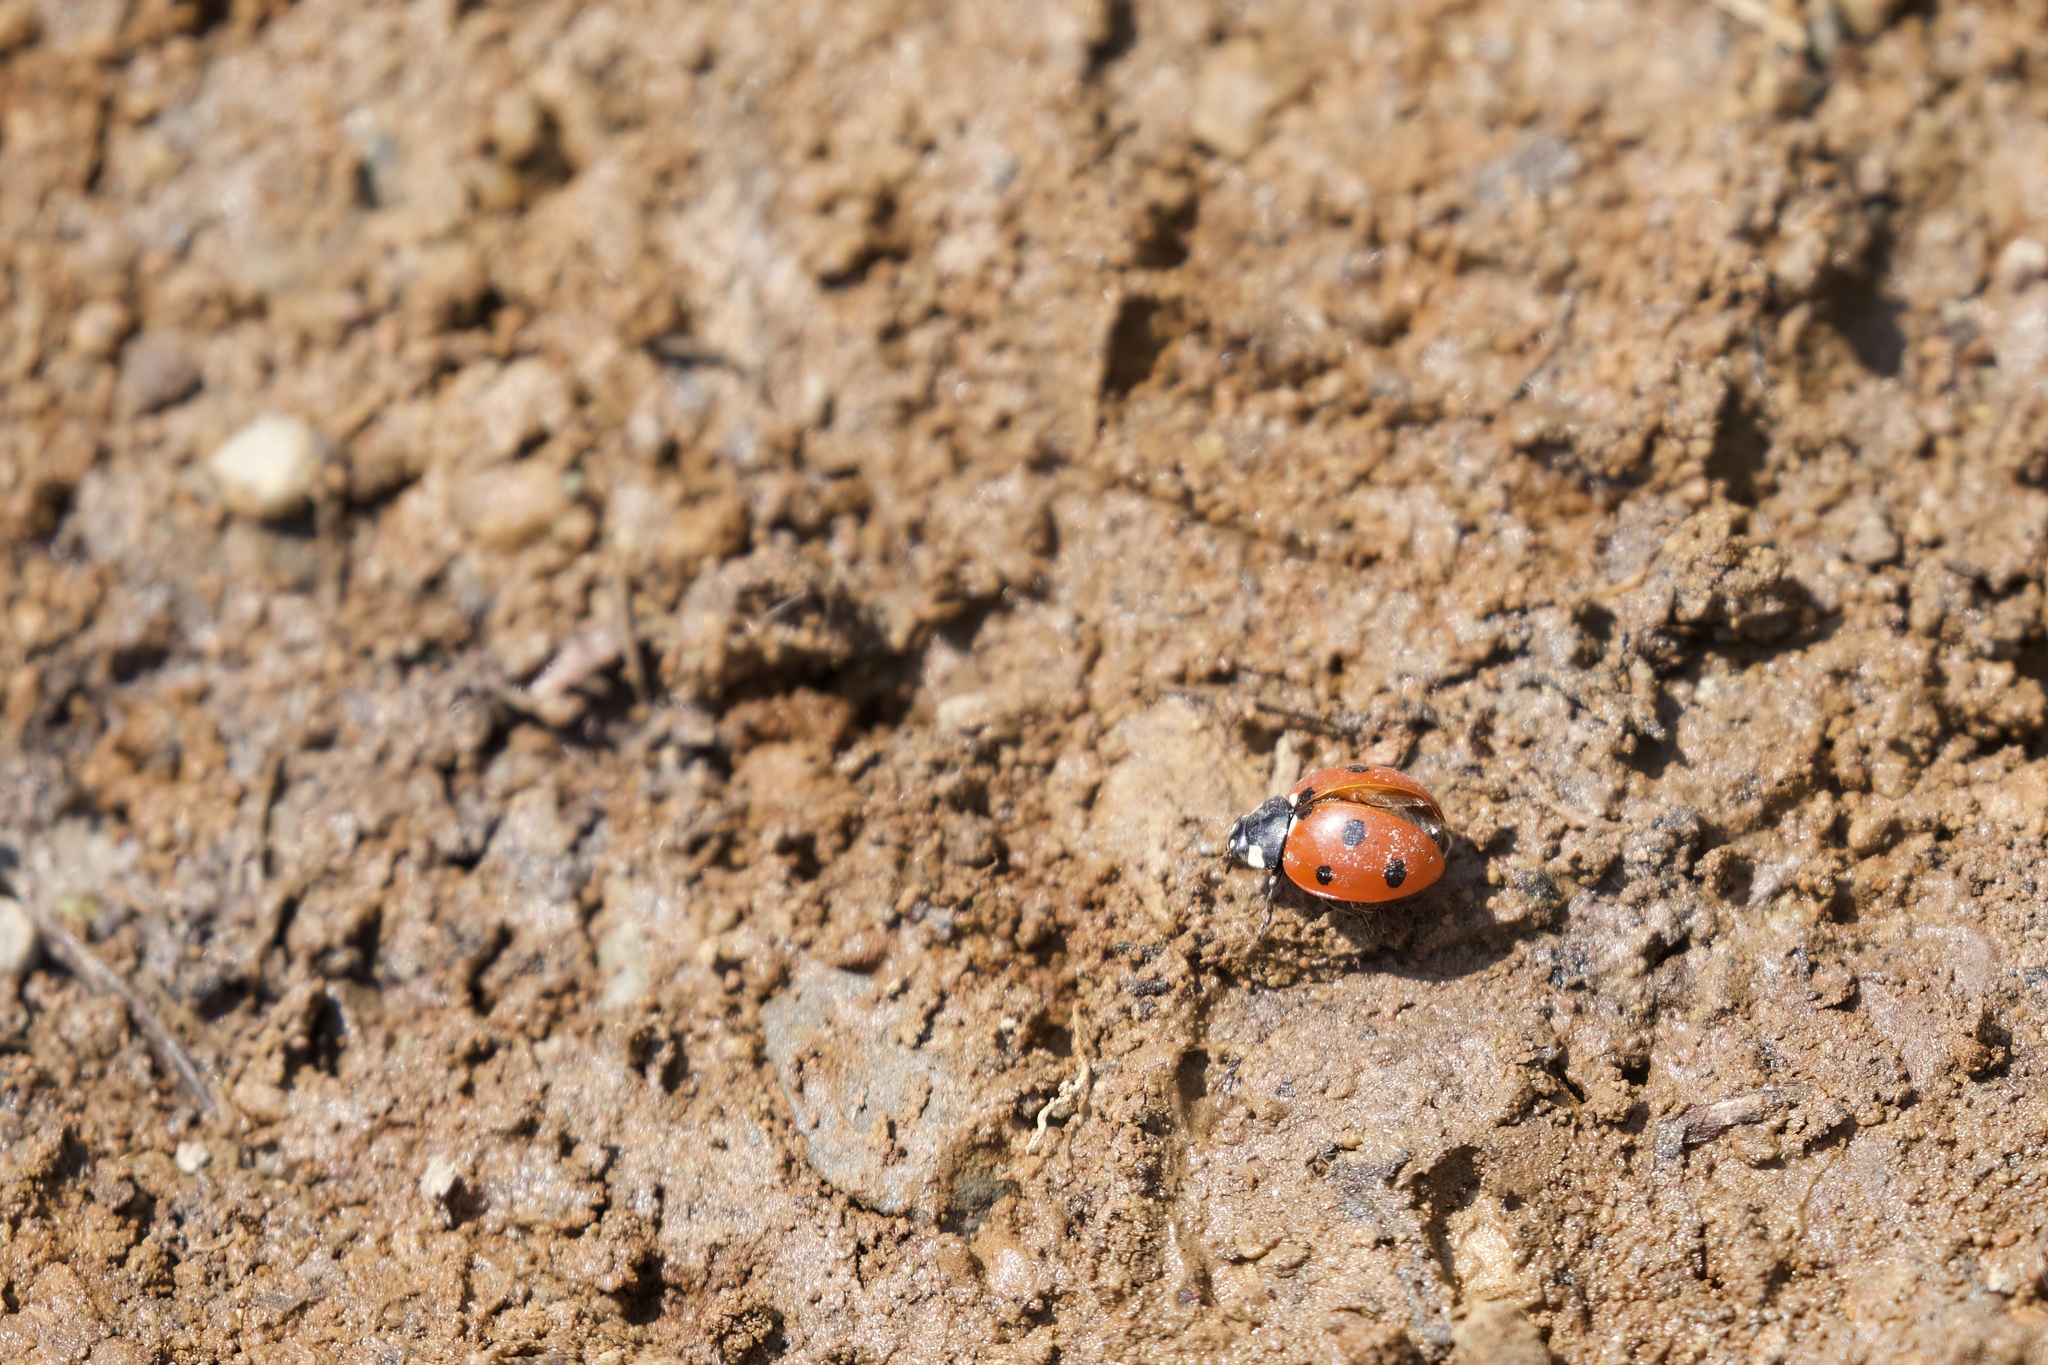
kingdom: Animalia
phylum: Arthropoda
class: Insecta
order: Coleoptera
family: Coccinellidae
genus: Coccinella
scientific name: Coccinella septempunctata
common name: Sevenspotted lady beetle
